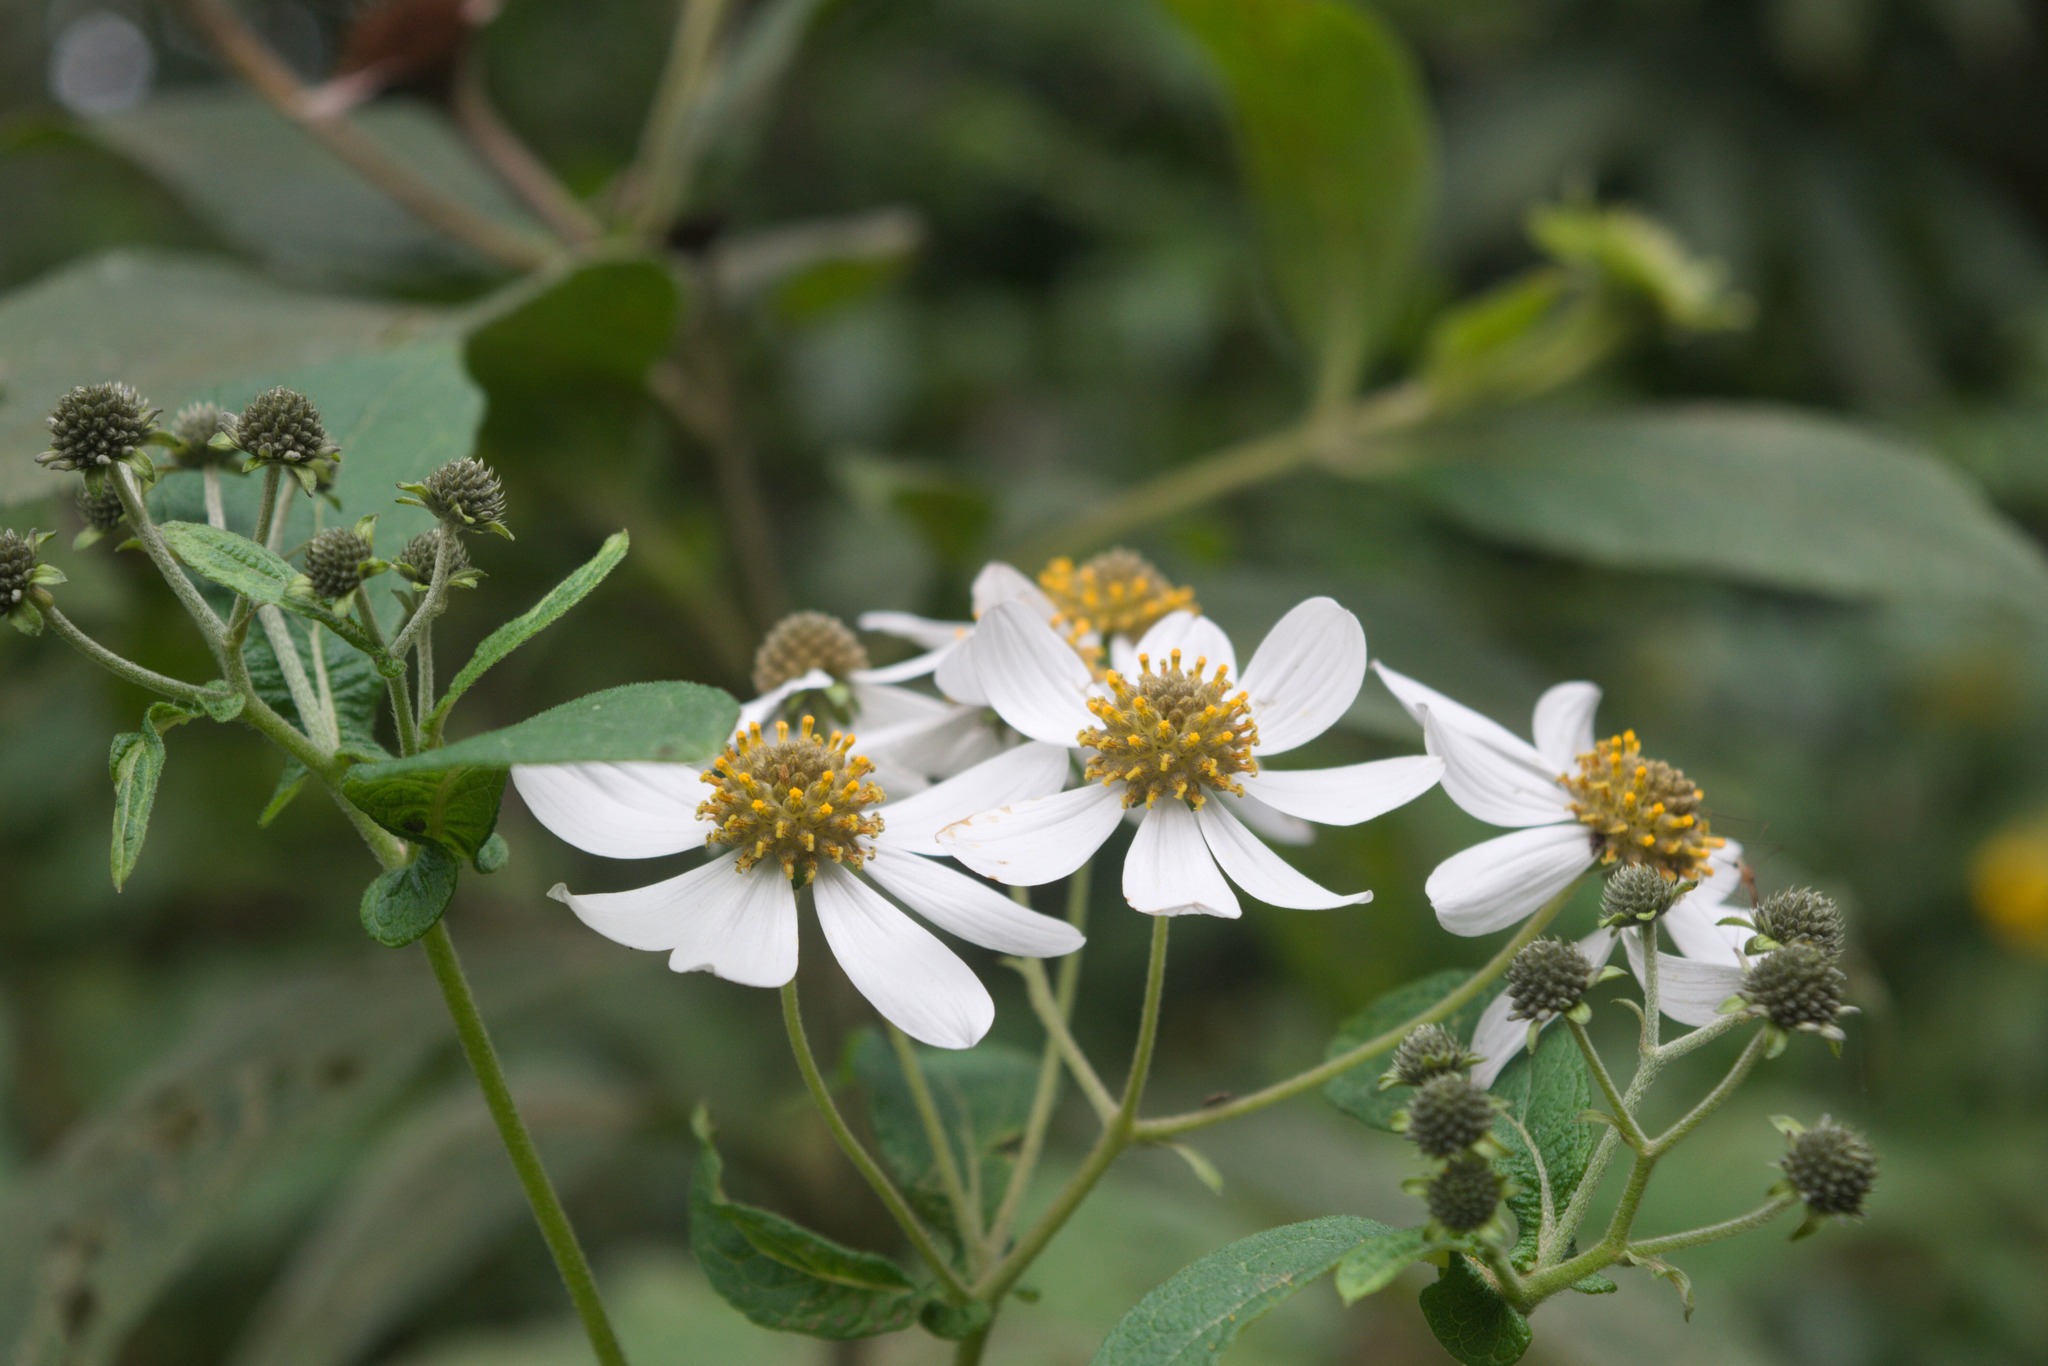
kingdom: Plantae
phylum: Tracheophyta
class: Magnoliopsida
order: Asterales
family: Asteraceae
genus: Montanoa
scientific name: Montanoa pteropoda
